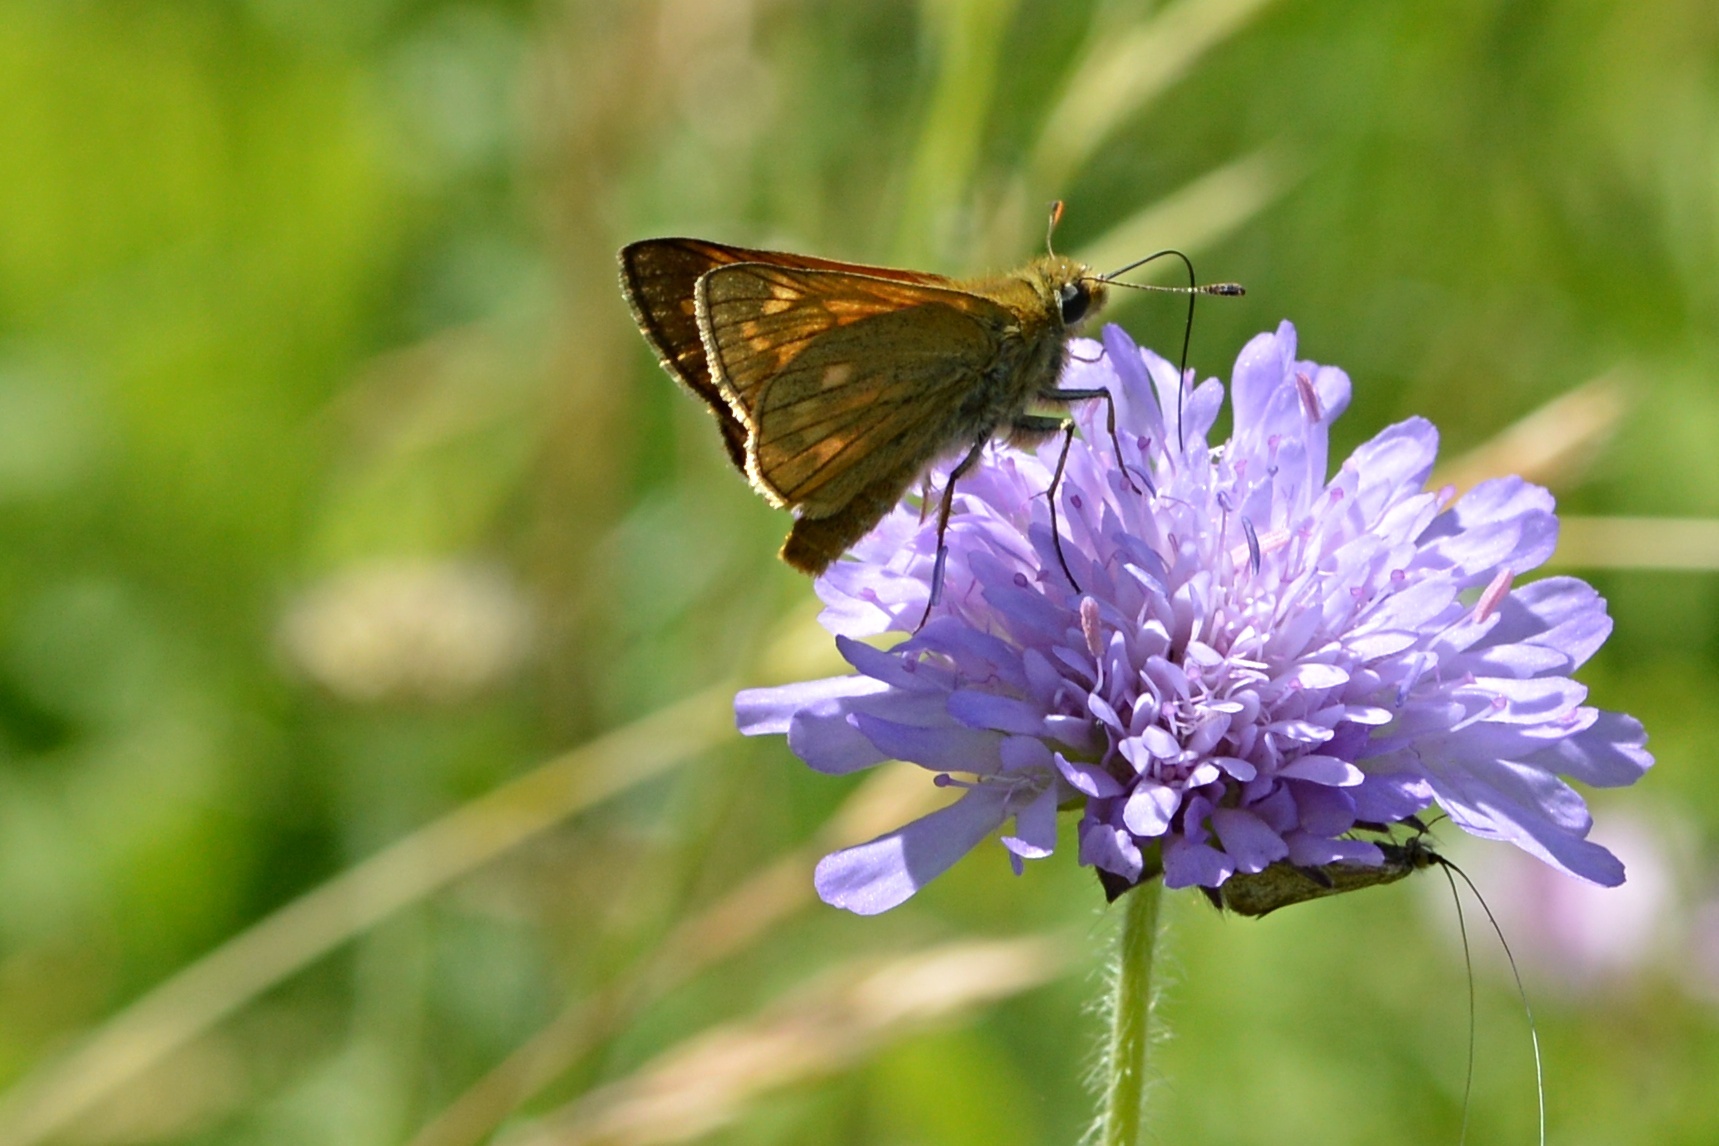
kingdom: Animalia
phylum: Arthropoda
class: Insecta
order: Lepidoptera
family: Hesperiidae
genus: Ochlodes
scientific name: Ochlodes venata
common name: Large skipper
